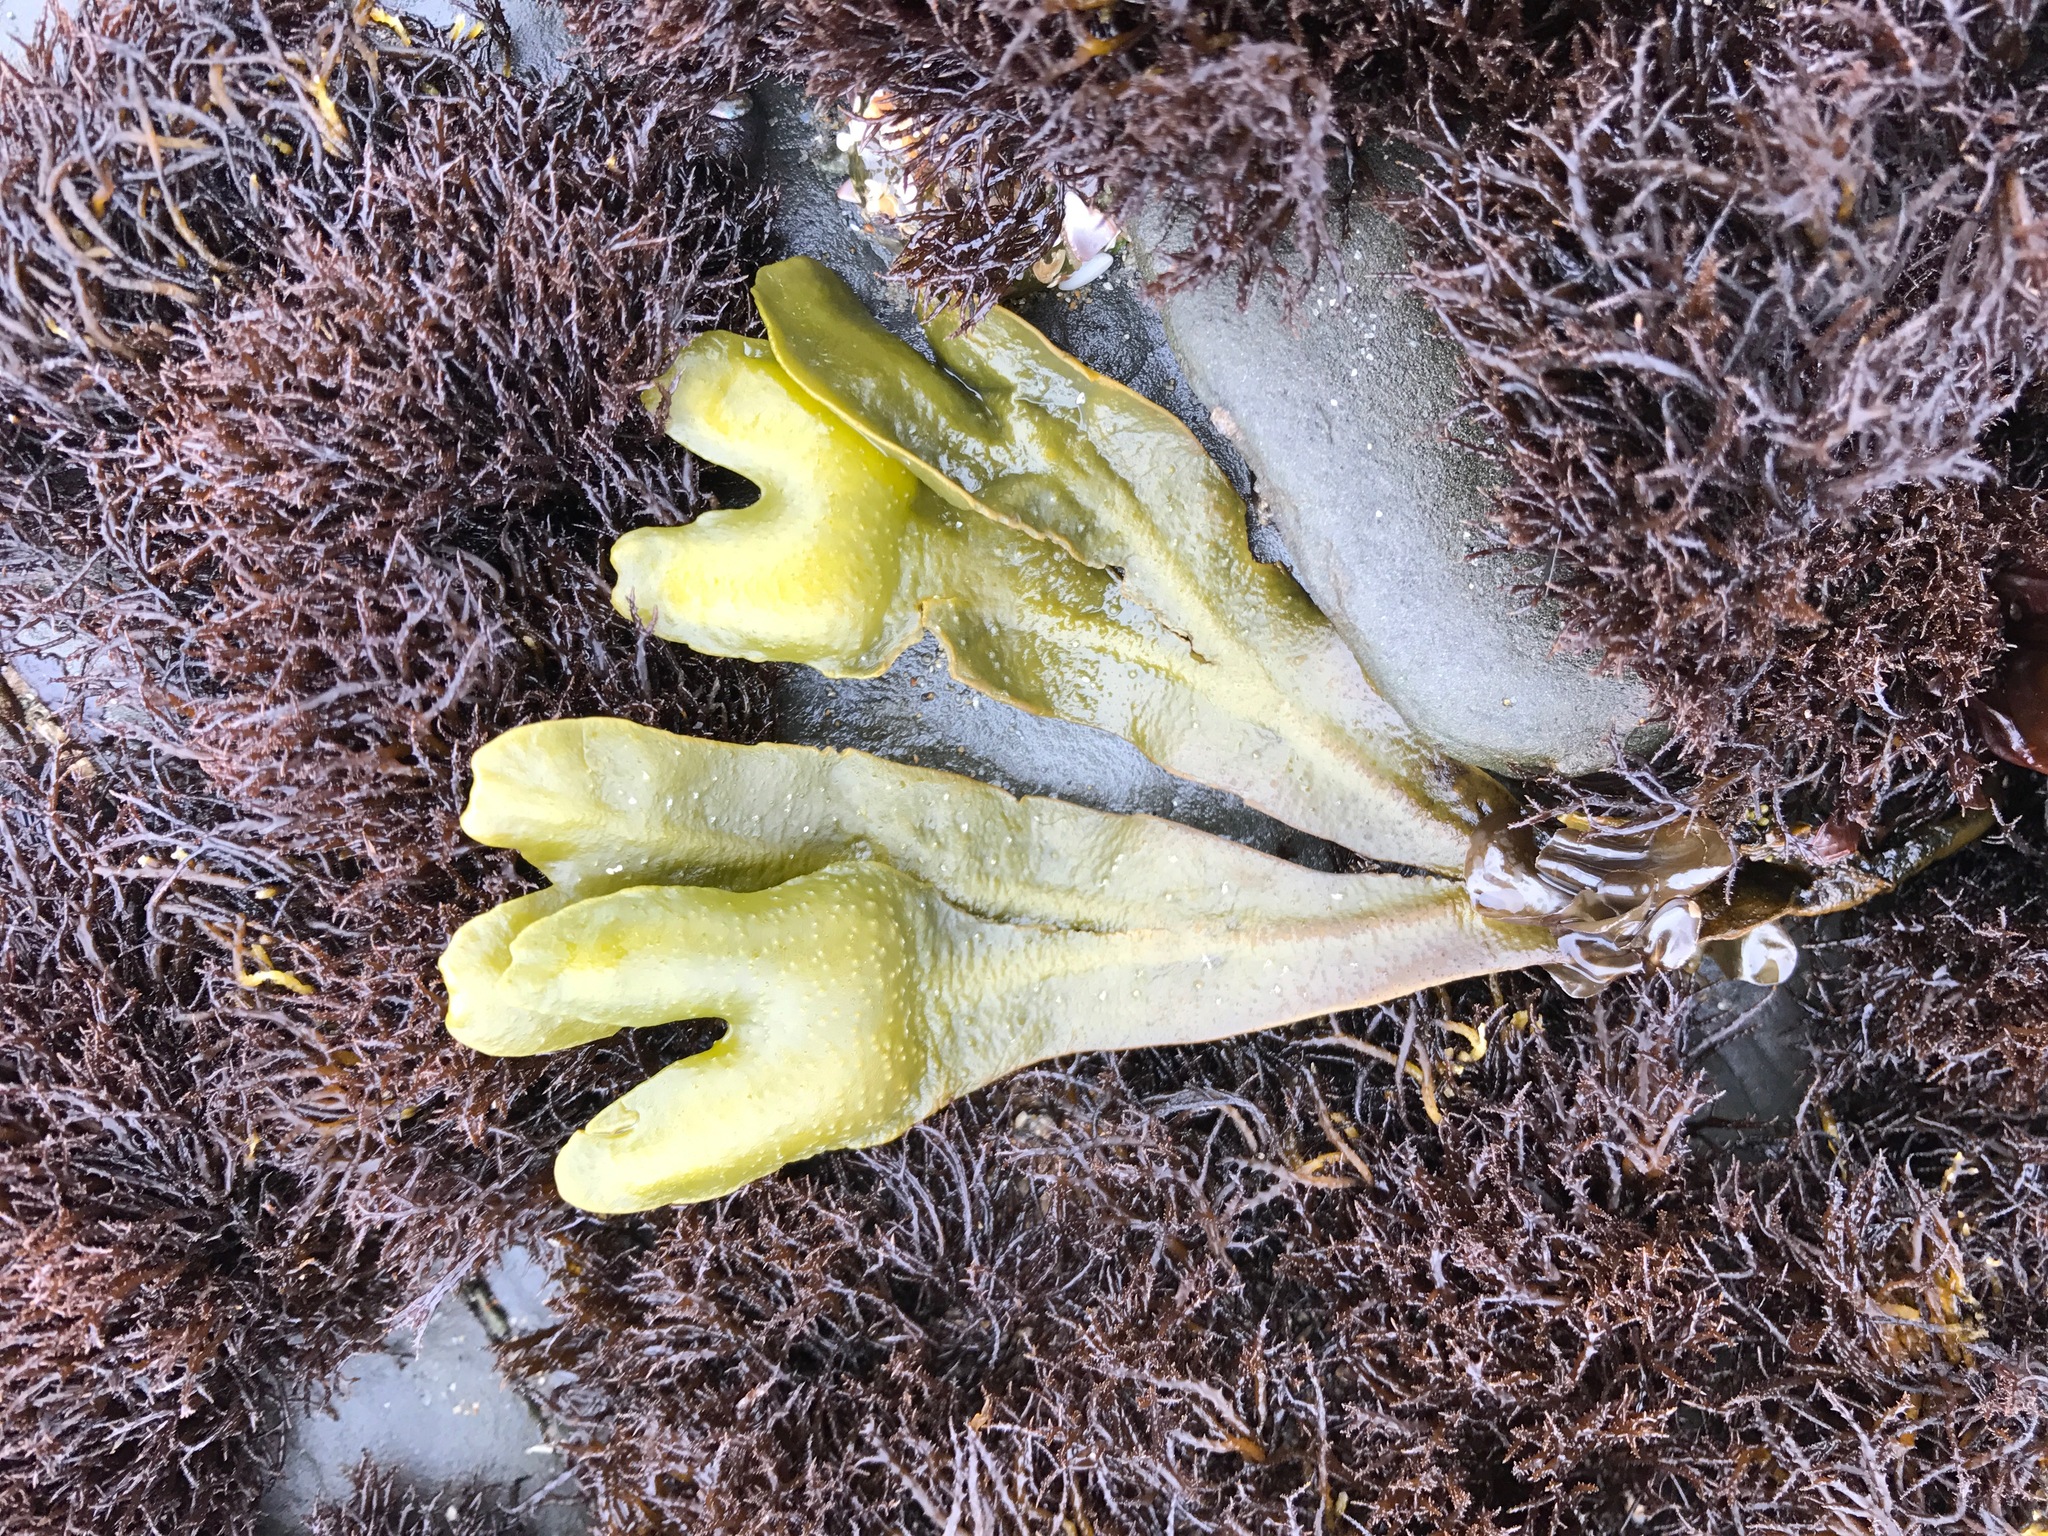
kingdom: Chromista
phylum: Ochrophyta
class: Phaeophyceae
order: Fucales
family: Fucaceae
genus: Fucus
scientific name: Fucus distichus
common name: Rockweed
